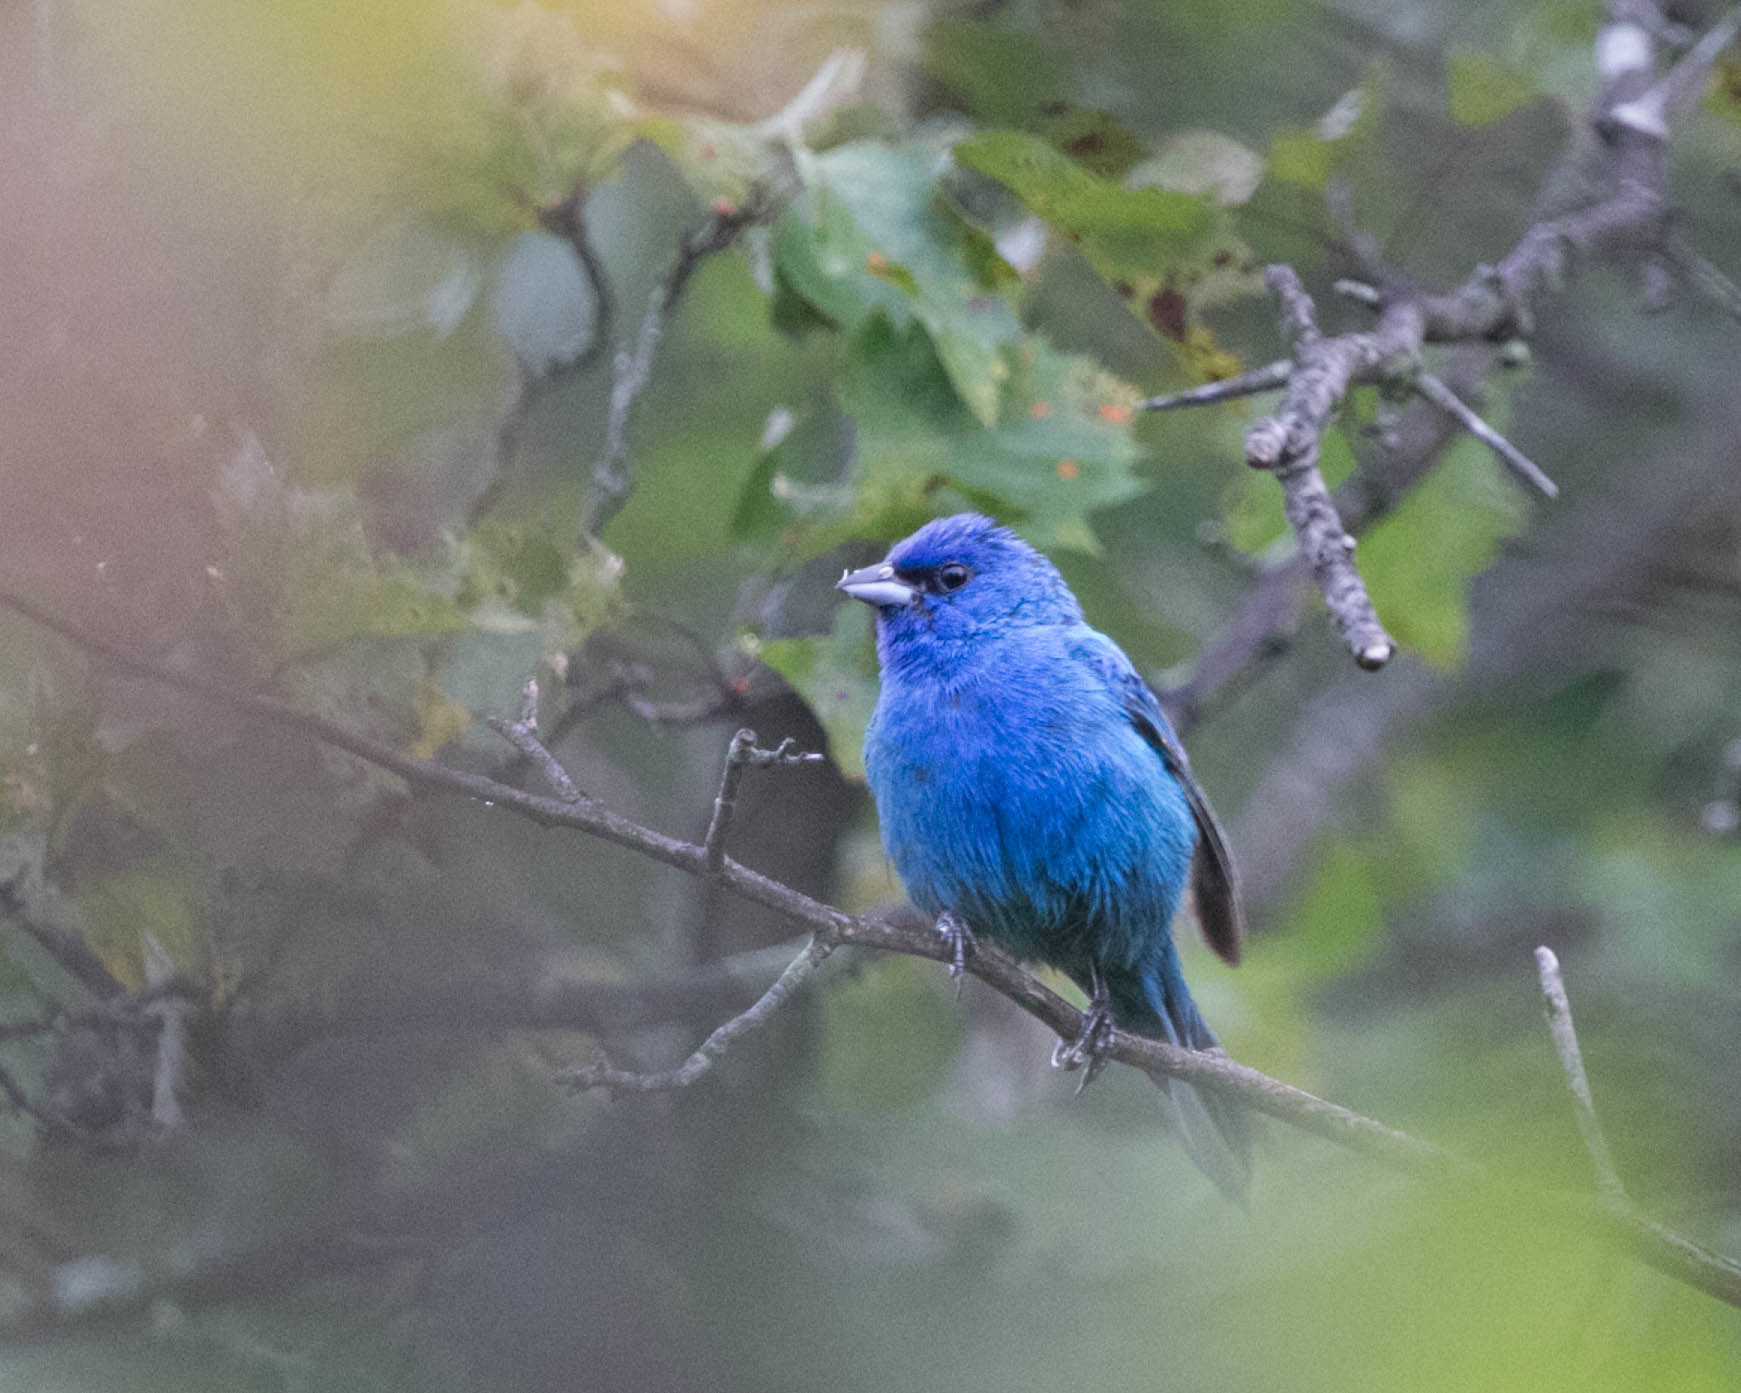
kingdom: Animalia
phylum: Chordata
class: Aves
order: Passeriformes
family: Cardinalidae
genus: Passerina
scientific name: Passerina cyanea
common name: Indigo bunting
